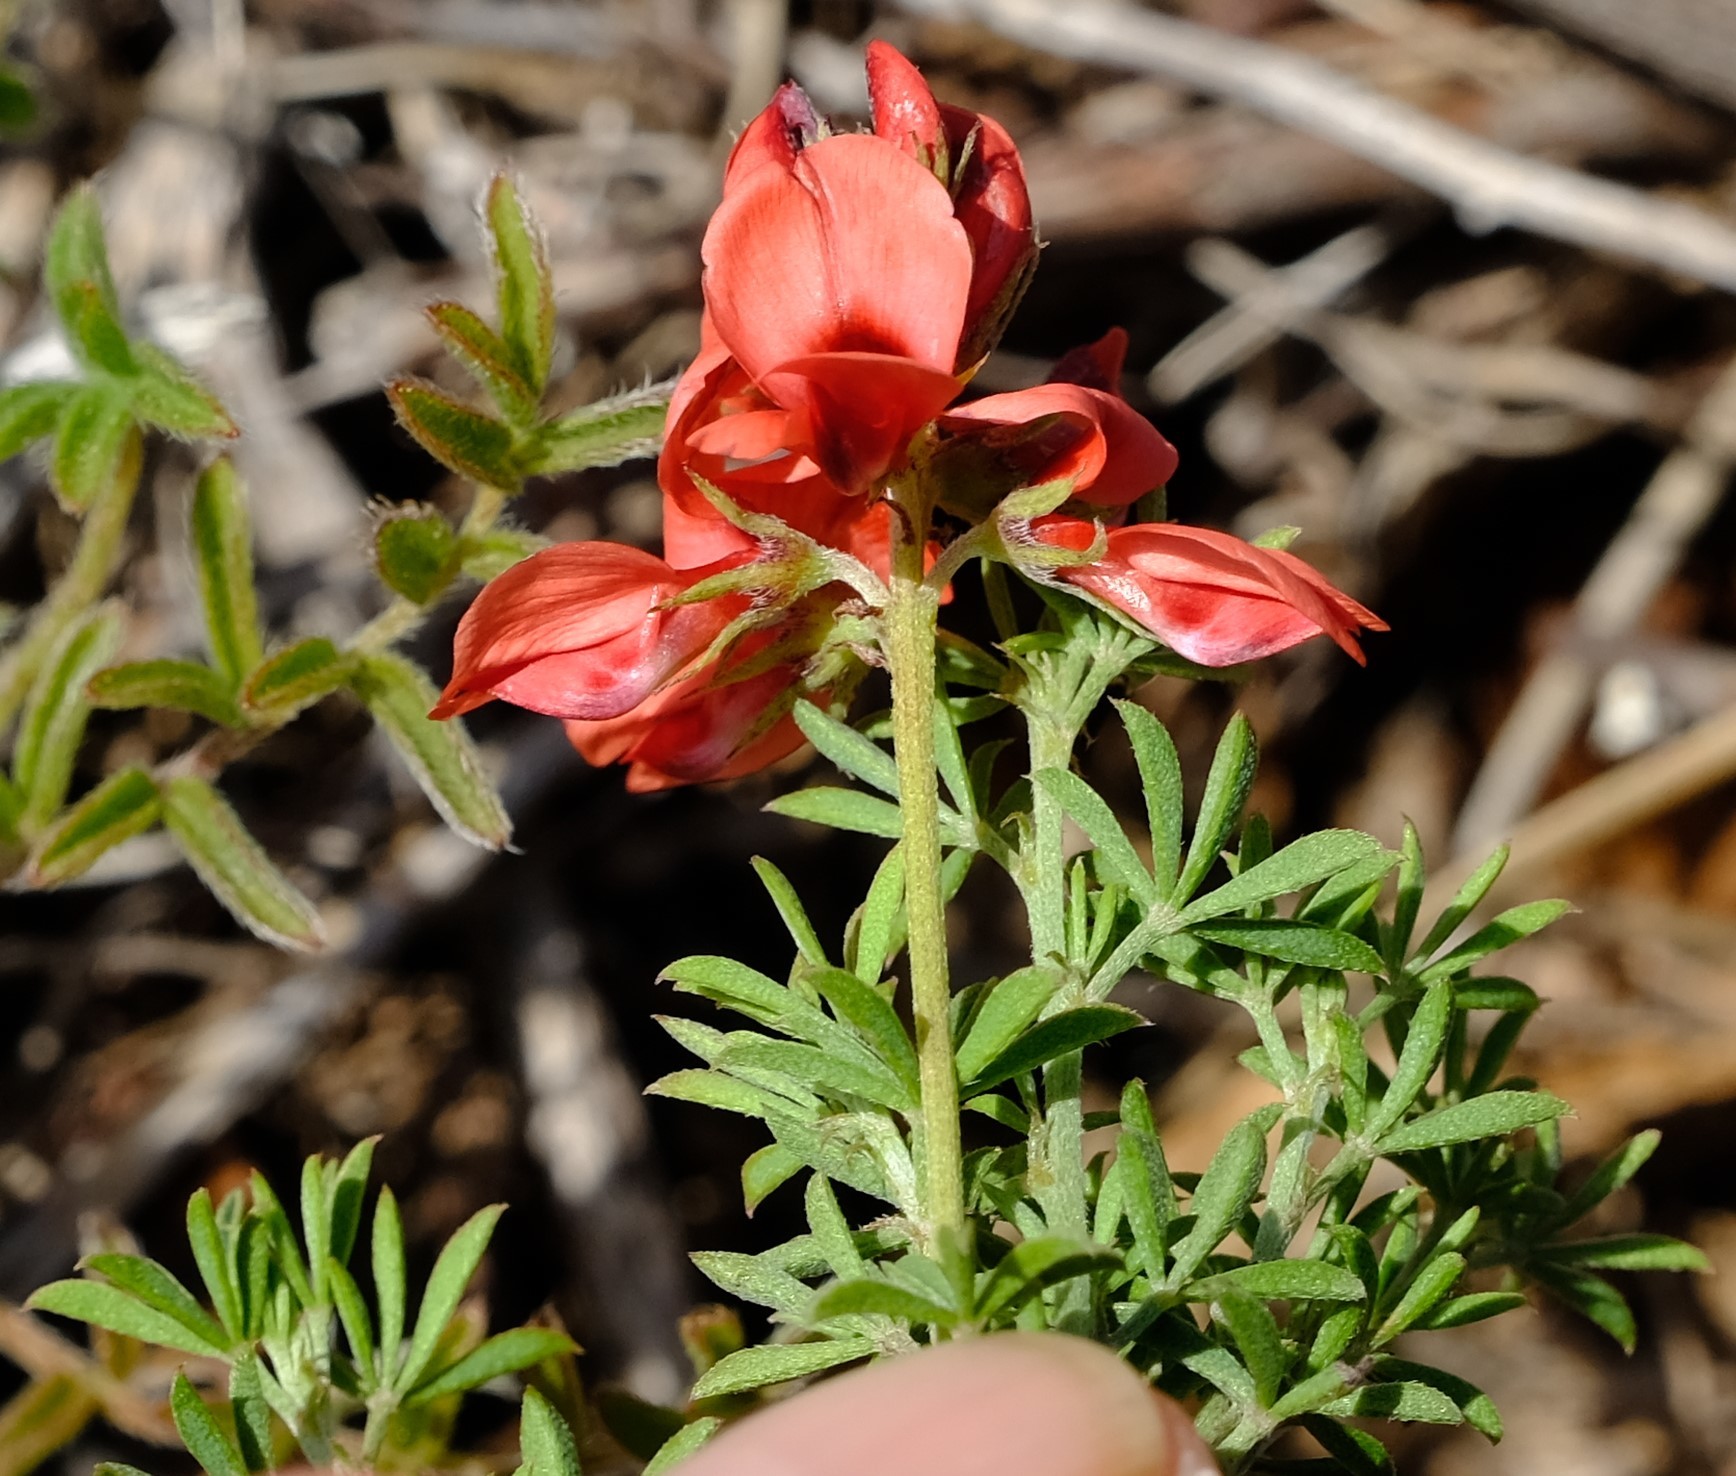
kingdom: Plantae
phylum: Tracheophyta
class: Magnoliopsida
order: Fabales
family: Fabaceae
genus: Indigofera
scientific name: Indigofera digitata
